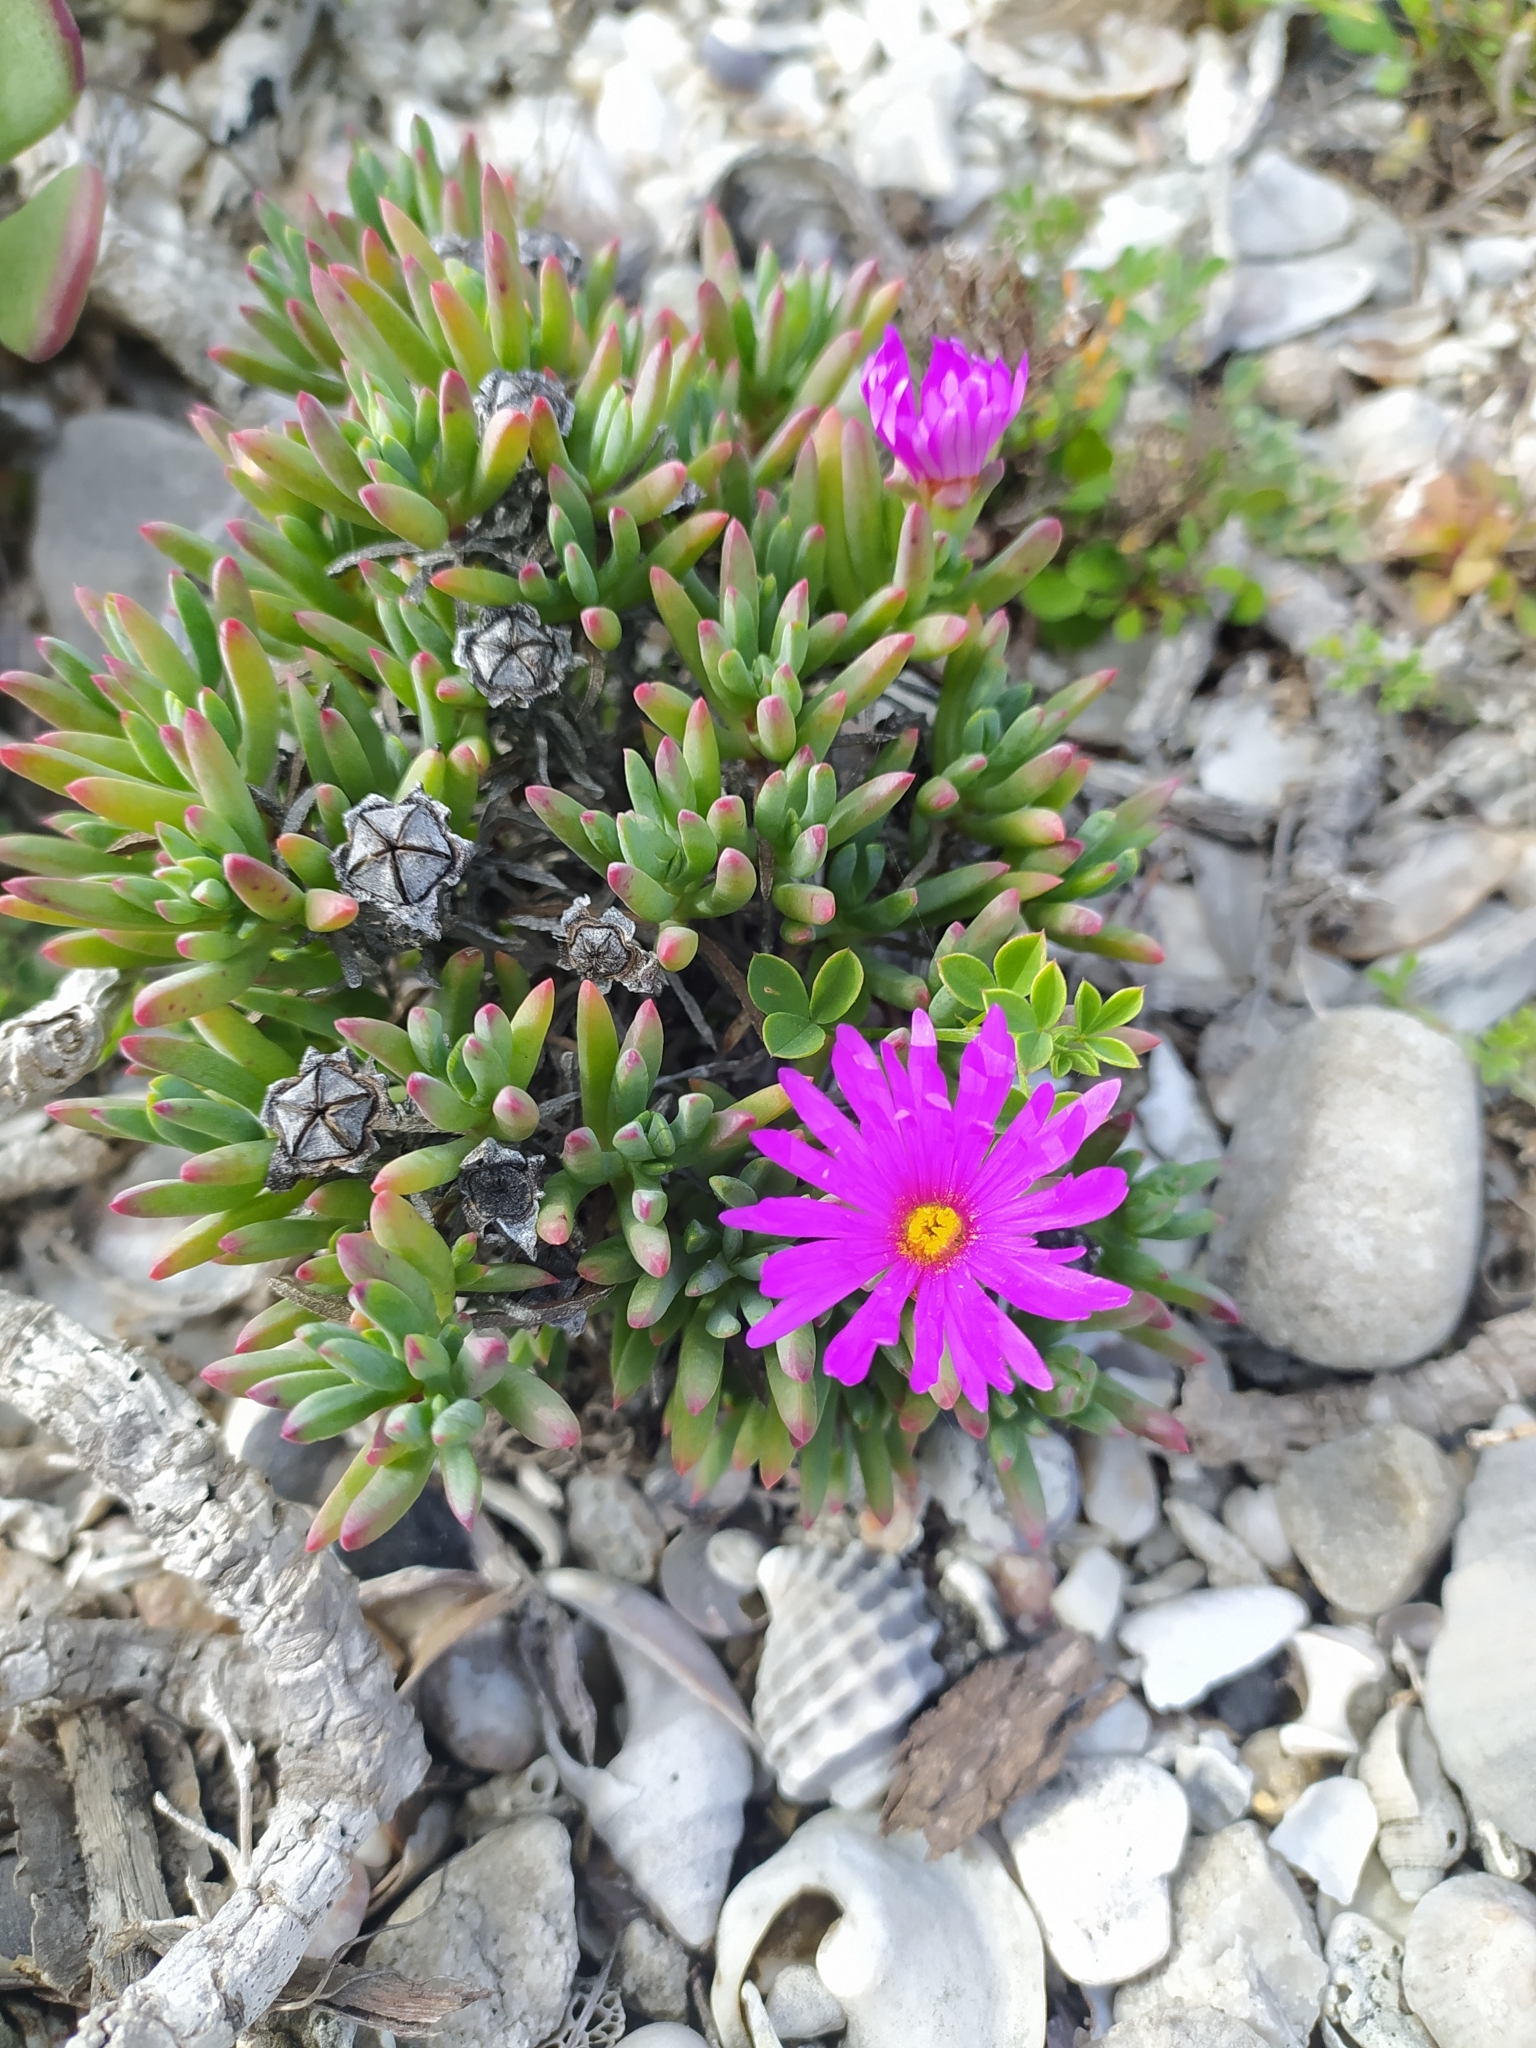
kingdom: Plantae
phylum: Tracheophyta
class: Magnoliopsida
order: Caryophyllales
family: Aizoaceae
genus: Lampranthus
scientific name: Lampranthus ceriseus
